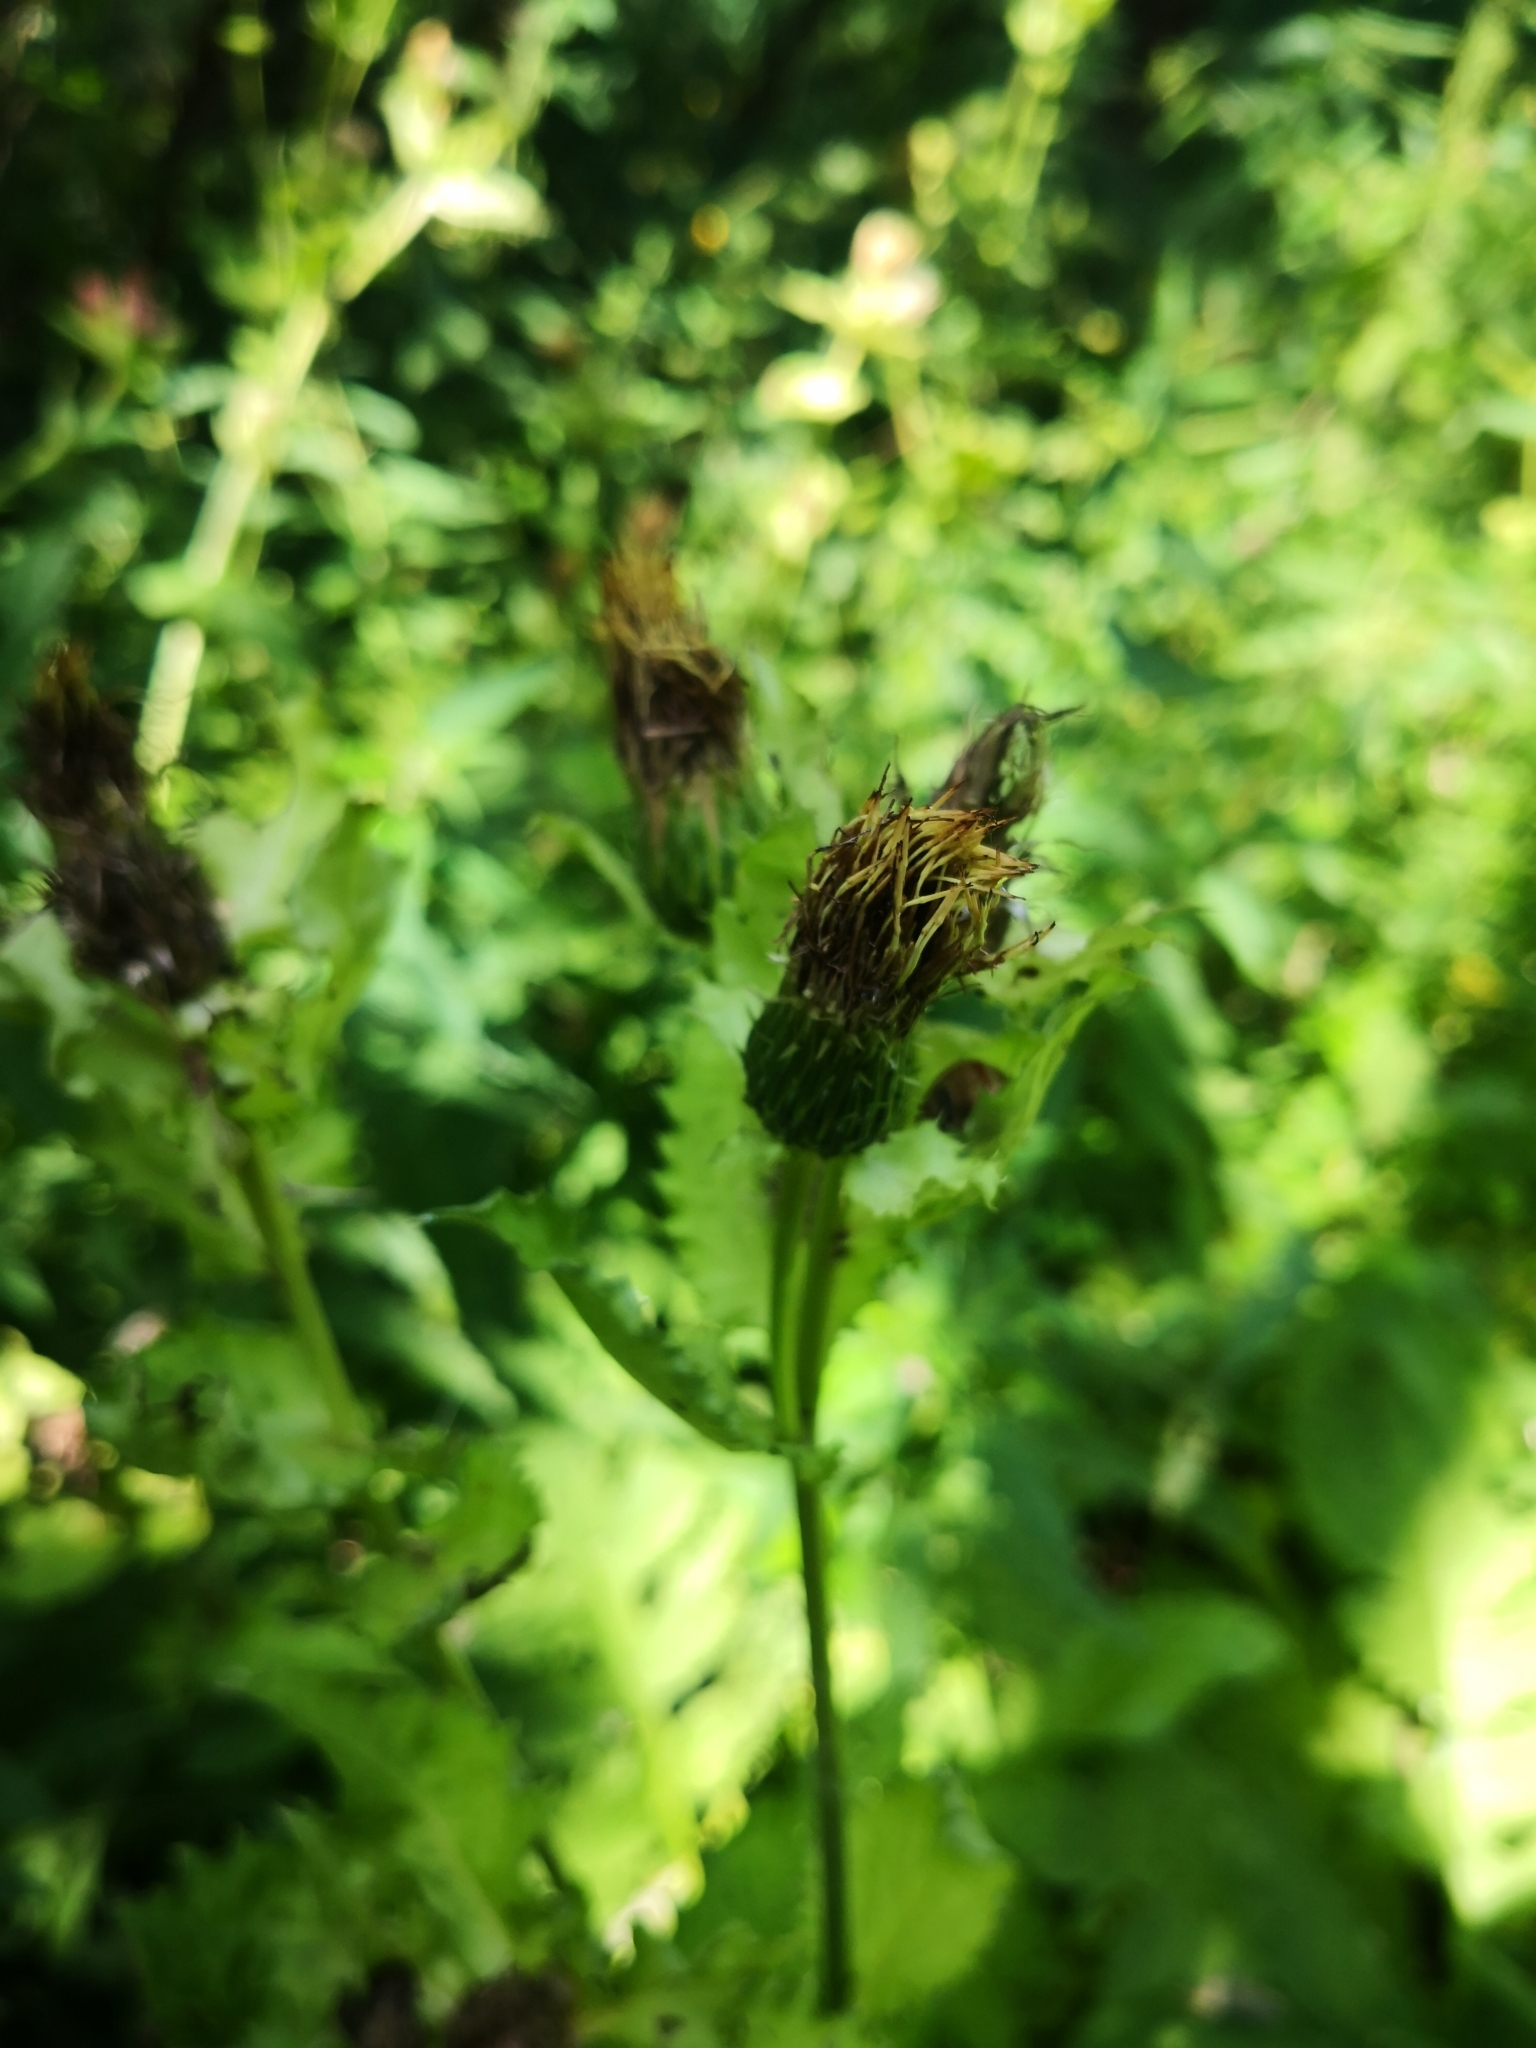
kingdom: Plantae
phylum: Tracheophyta
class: Magnoliopsida
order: Asterales
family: Asteraceae
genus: Cirsium
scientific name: Cirsium oleraceum
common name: Cabbage thistle
